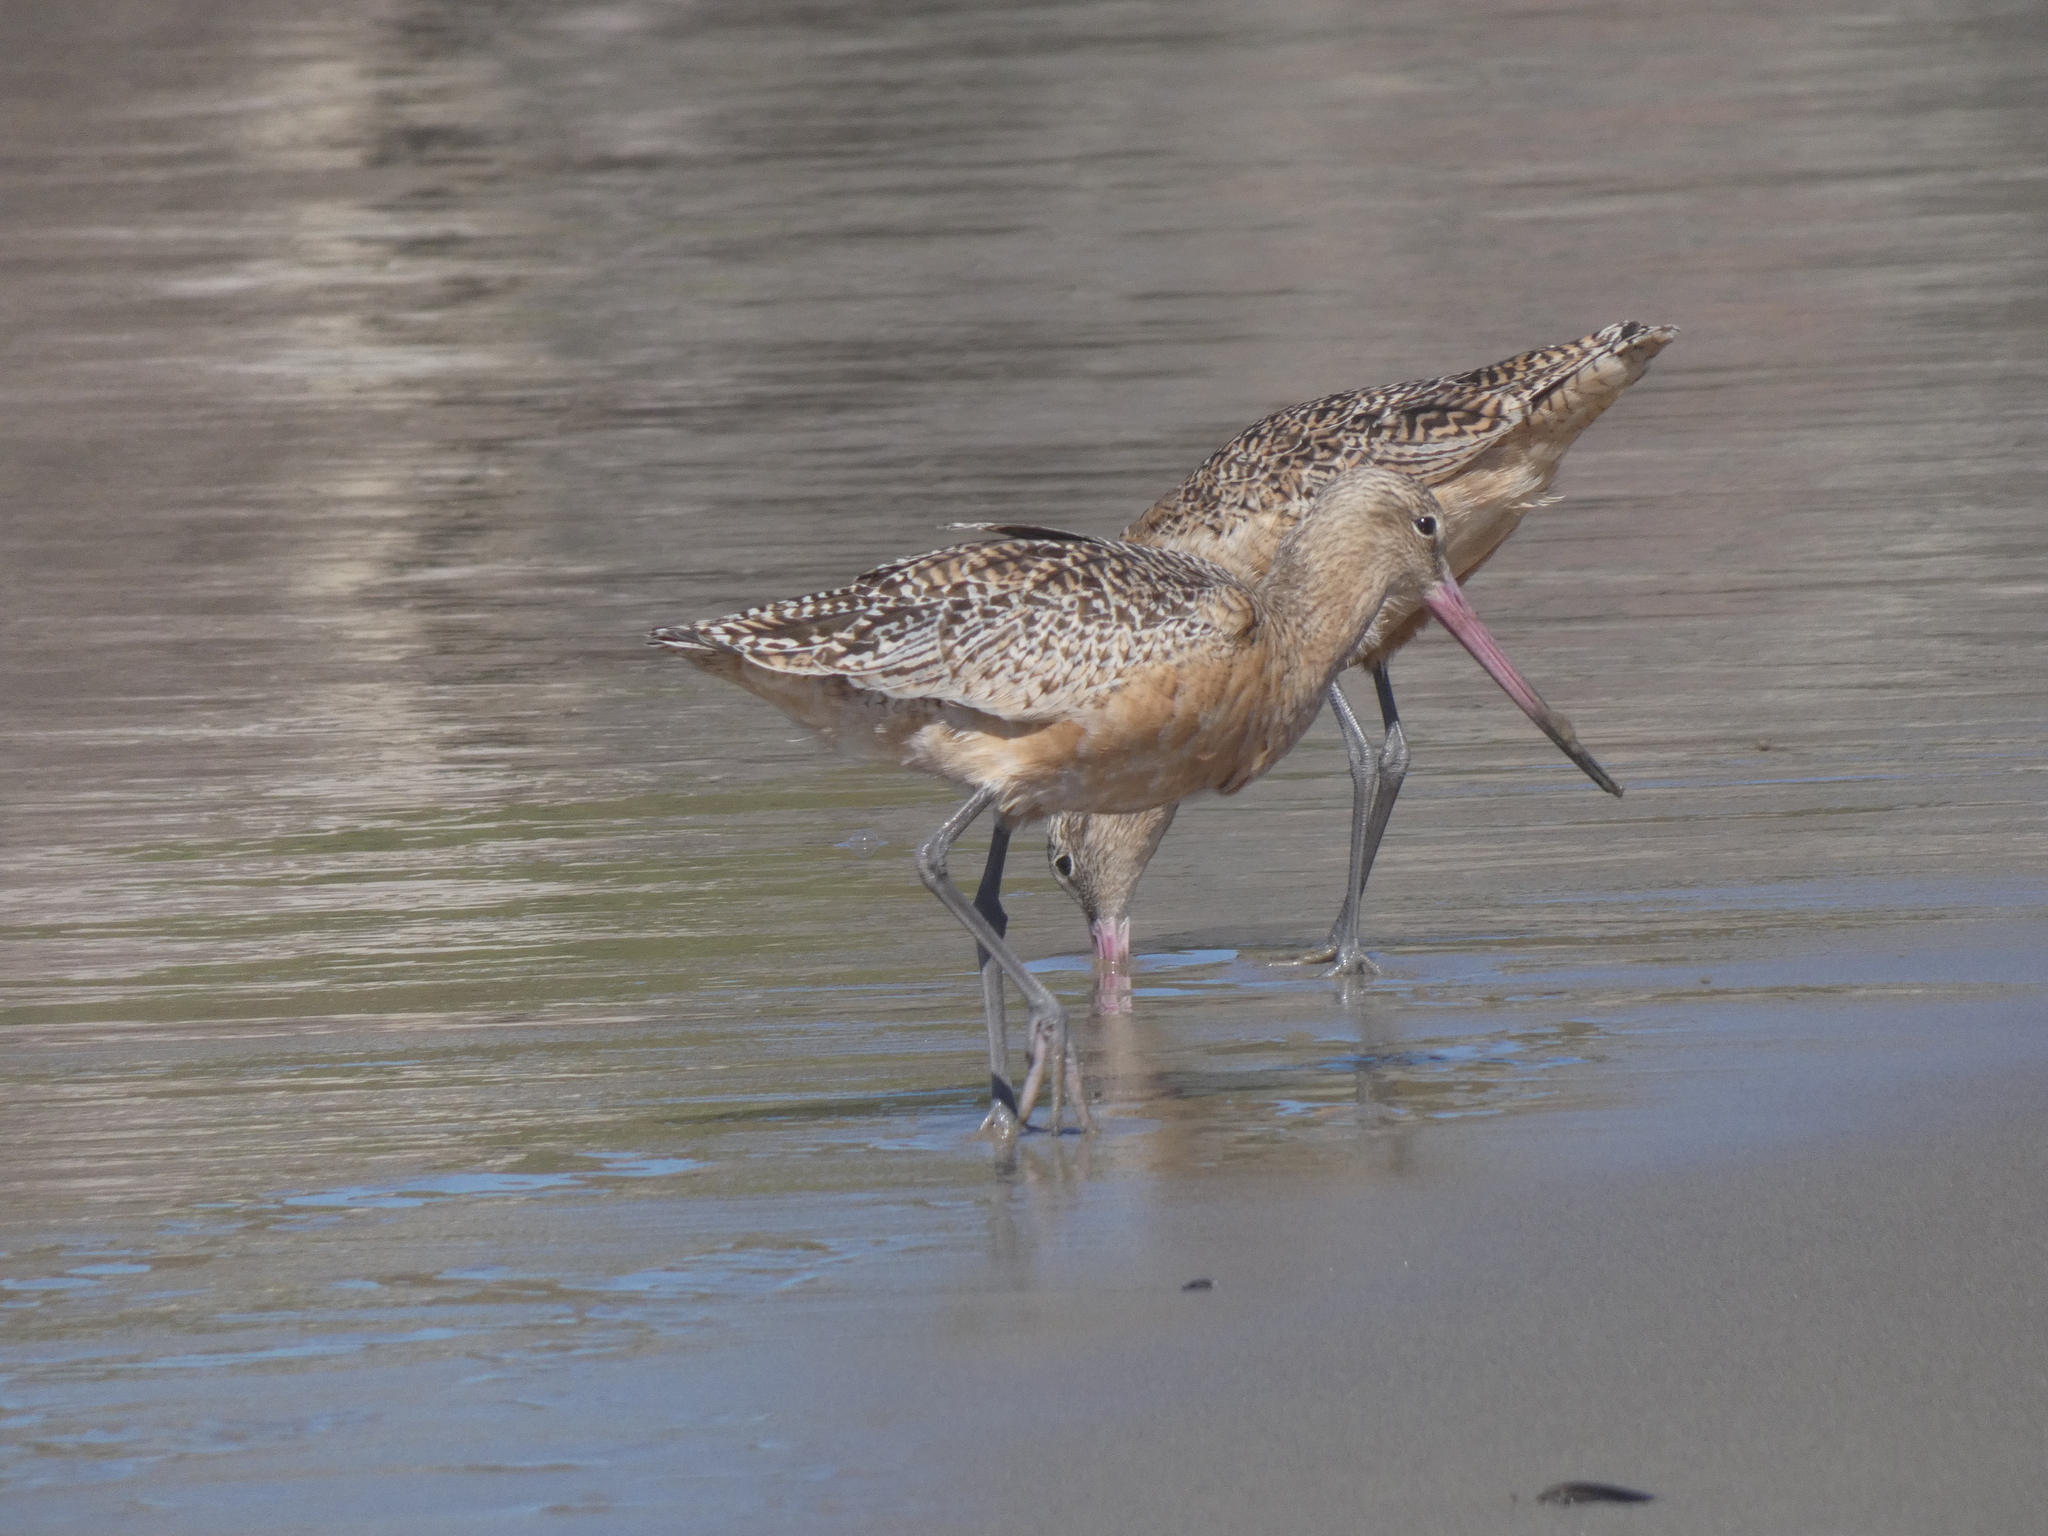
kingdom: Animalia
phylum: Chordata
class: Aves
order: Charadriiformes
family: Scolopacidae
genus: Limosa
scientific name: Limosa fedoa
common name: Marbled godwit
